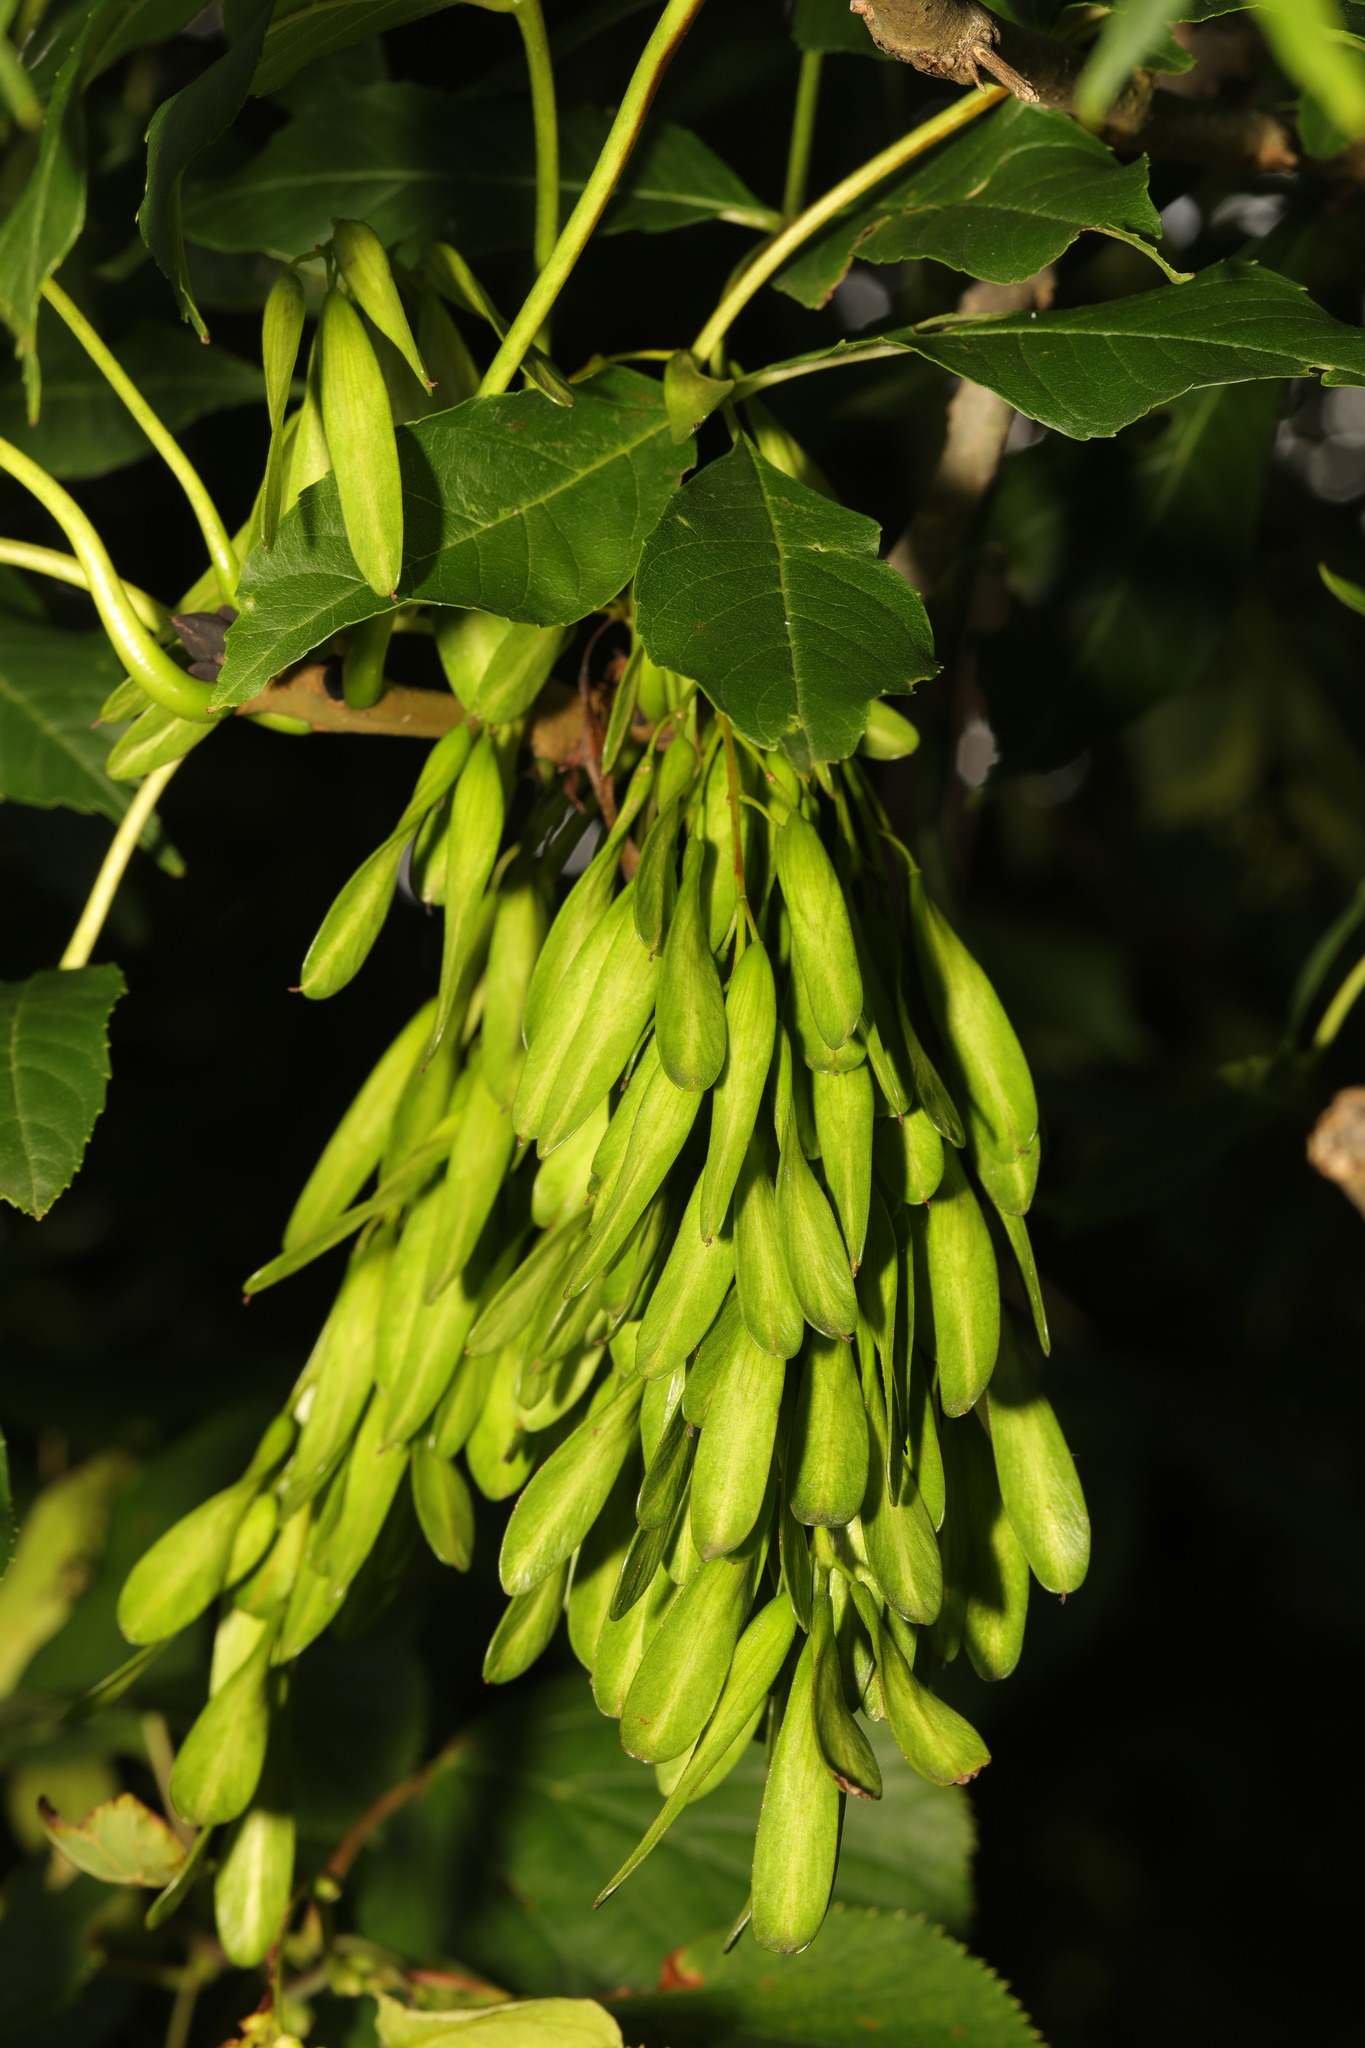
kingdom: Plantae
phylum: Tracheophyta
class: Magnoliopsida
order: Lamiales
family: Oleaceae
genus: Fraxinus
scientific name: Fraxinus excelsior
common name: European ash
